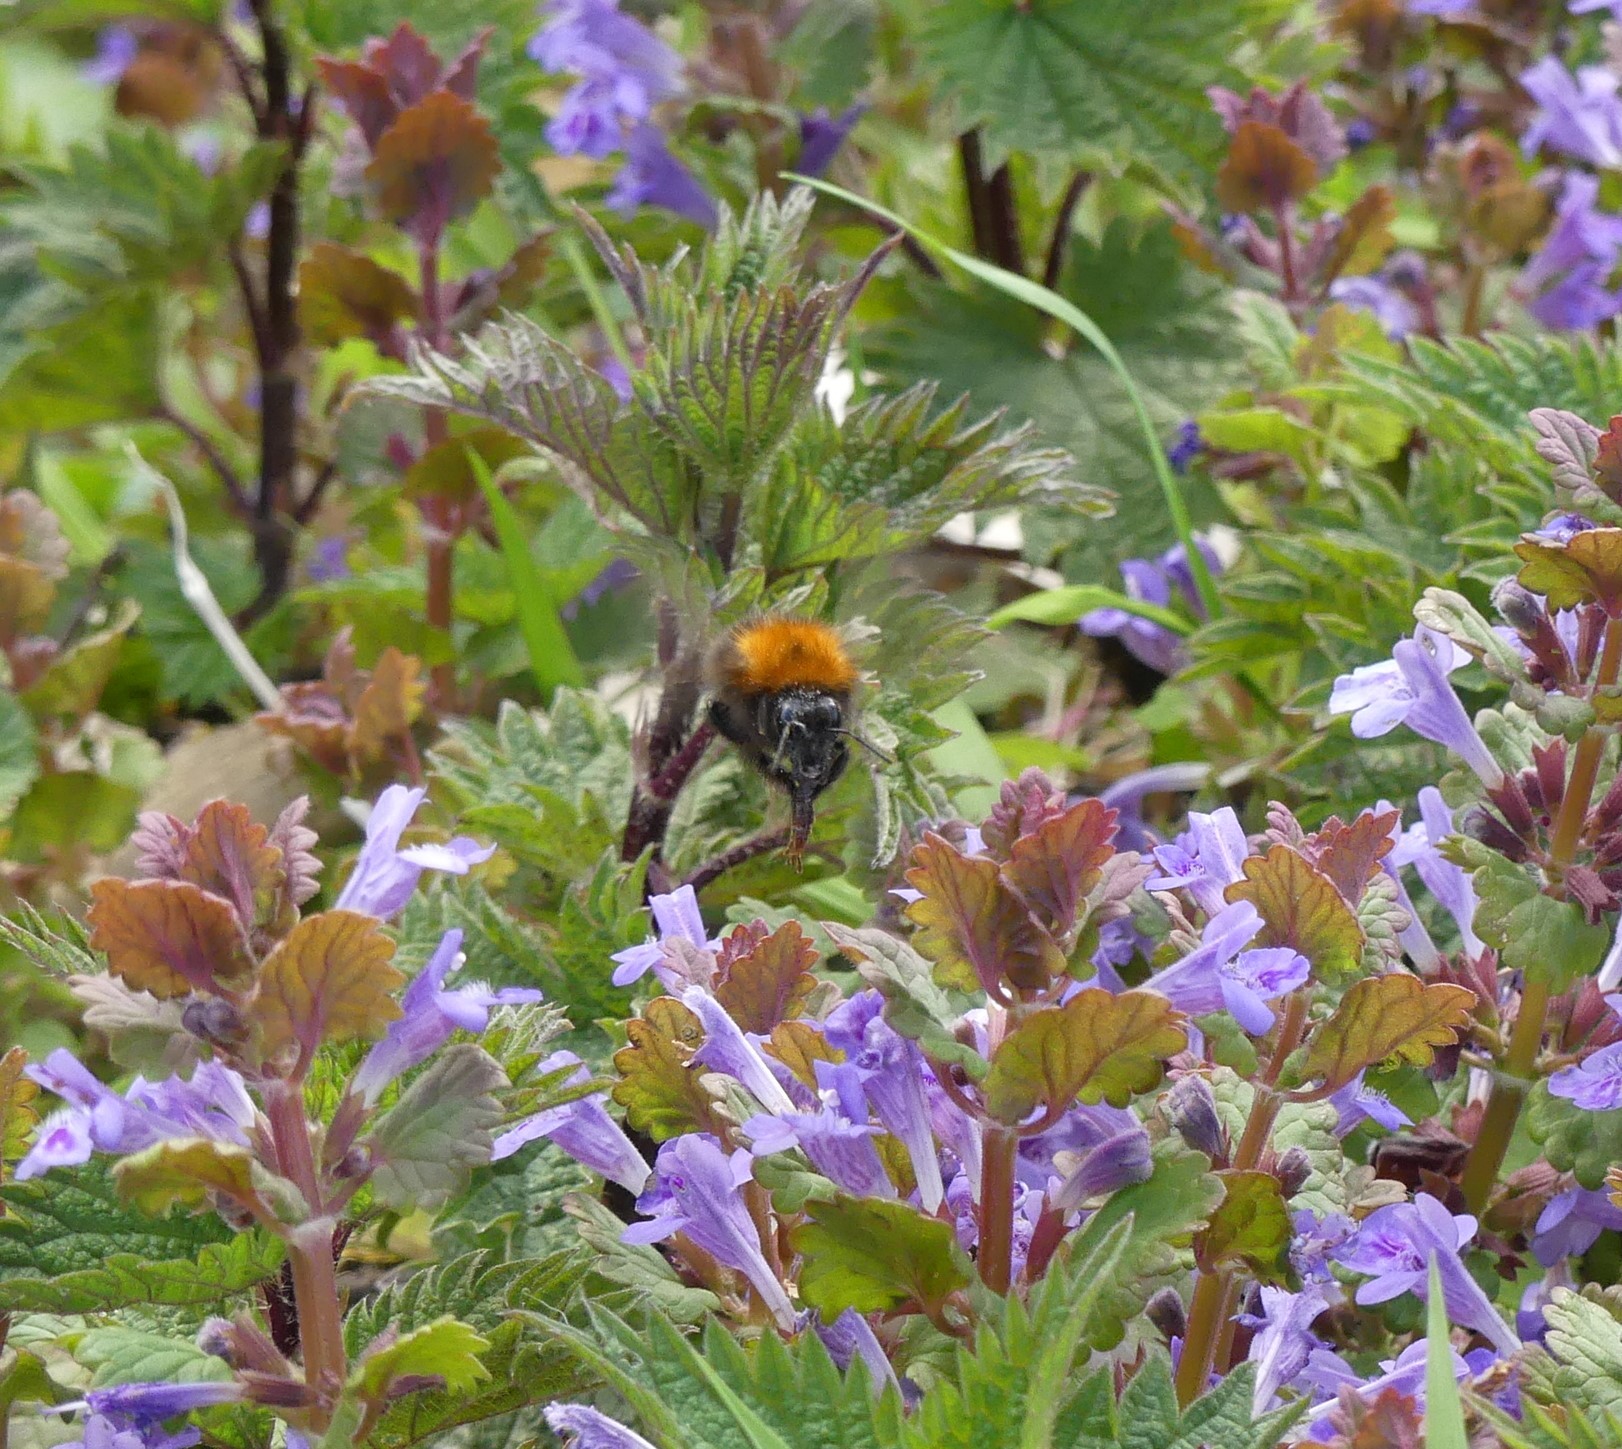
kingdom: Animalia
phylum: Arthropoda
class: Insecta
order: Hymenoptera
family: Apidae
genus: Bombus
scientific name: Bombus pascuorum
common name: Common carder bee
